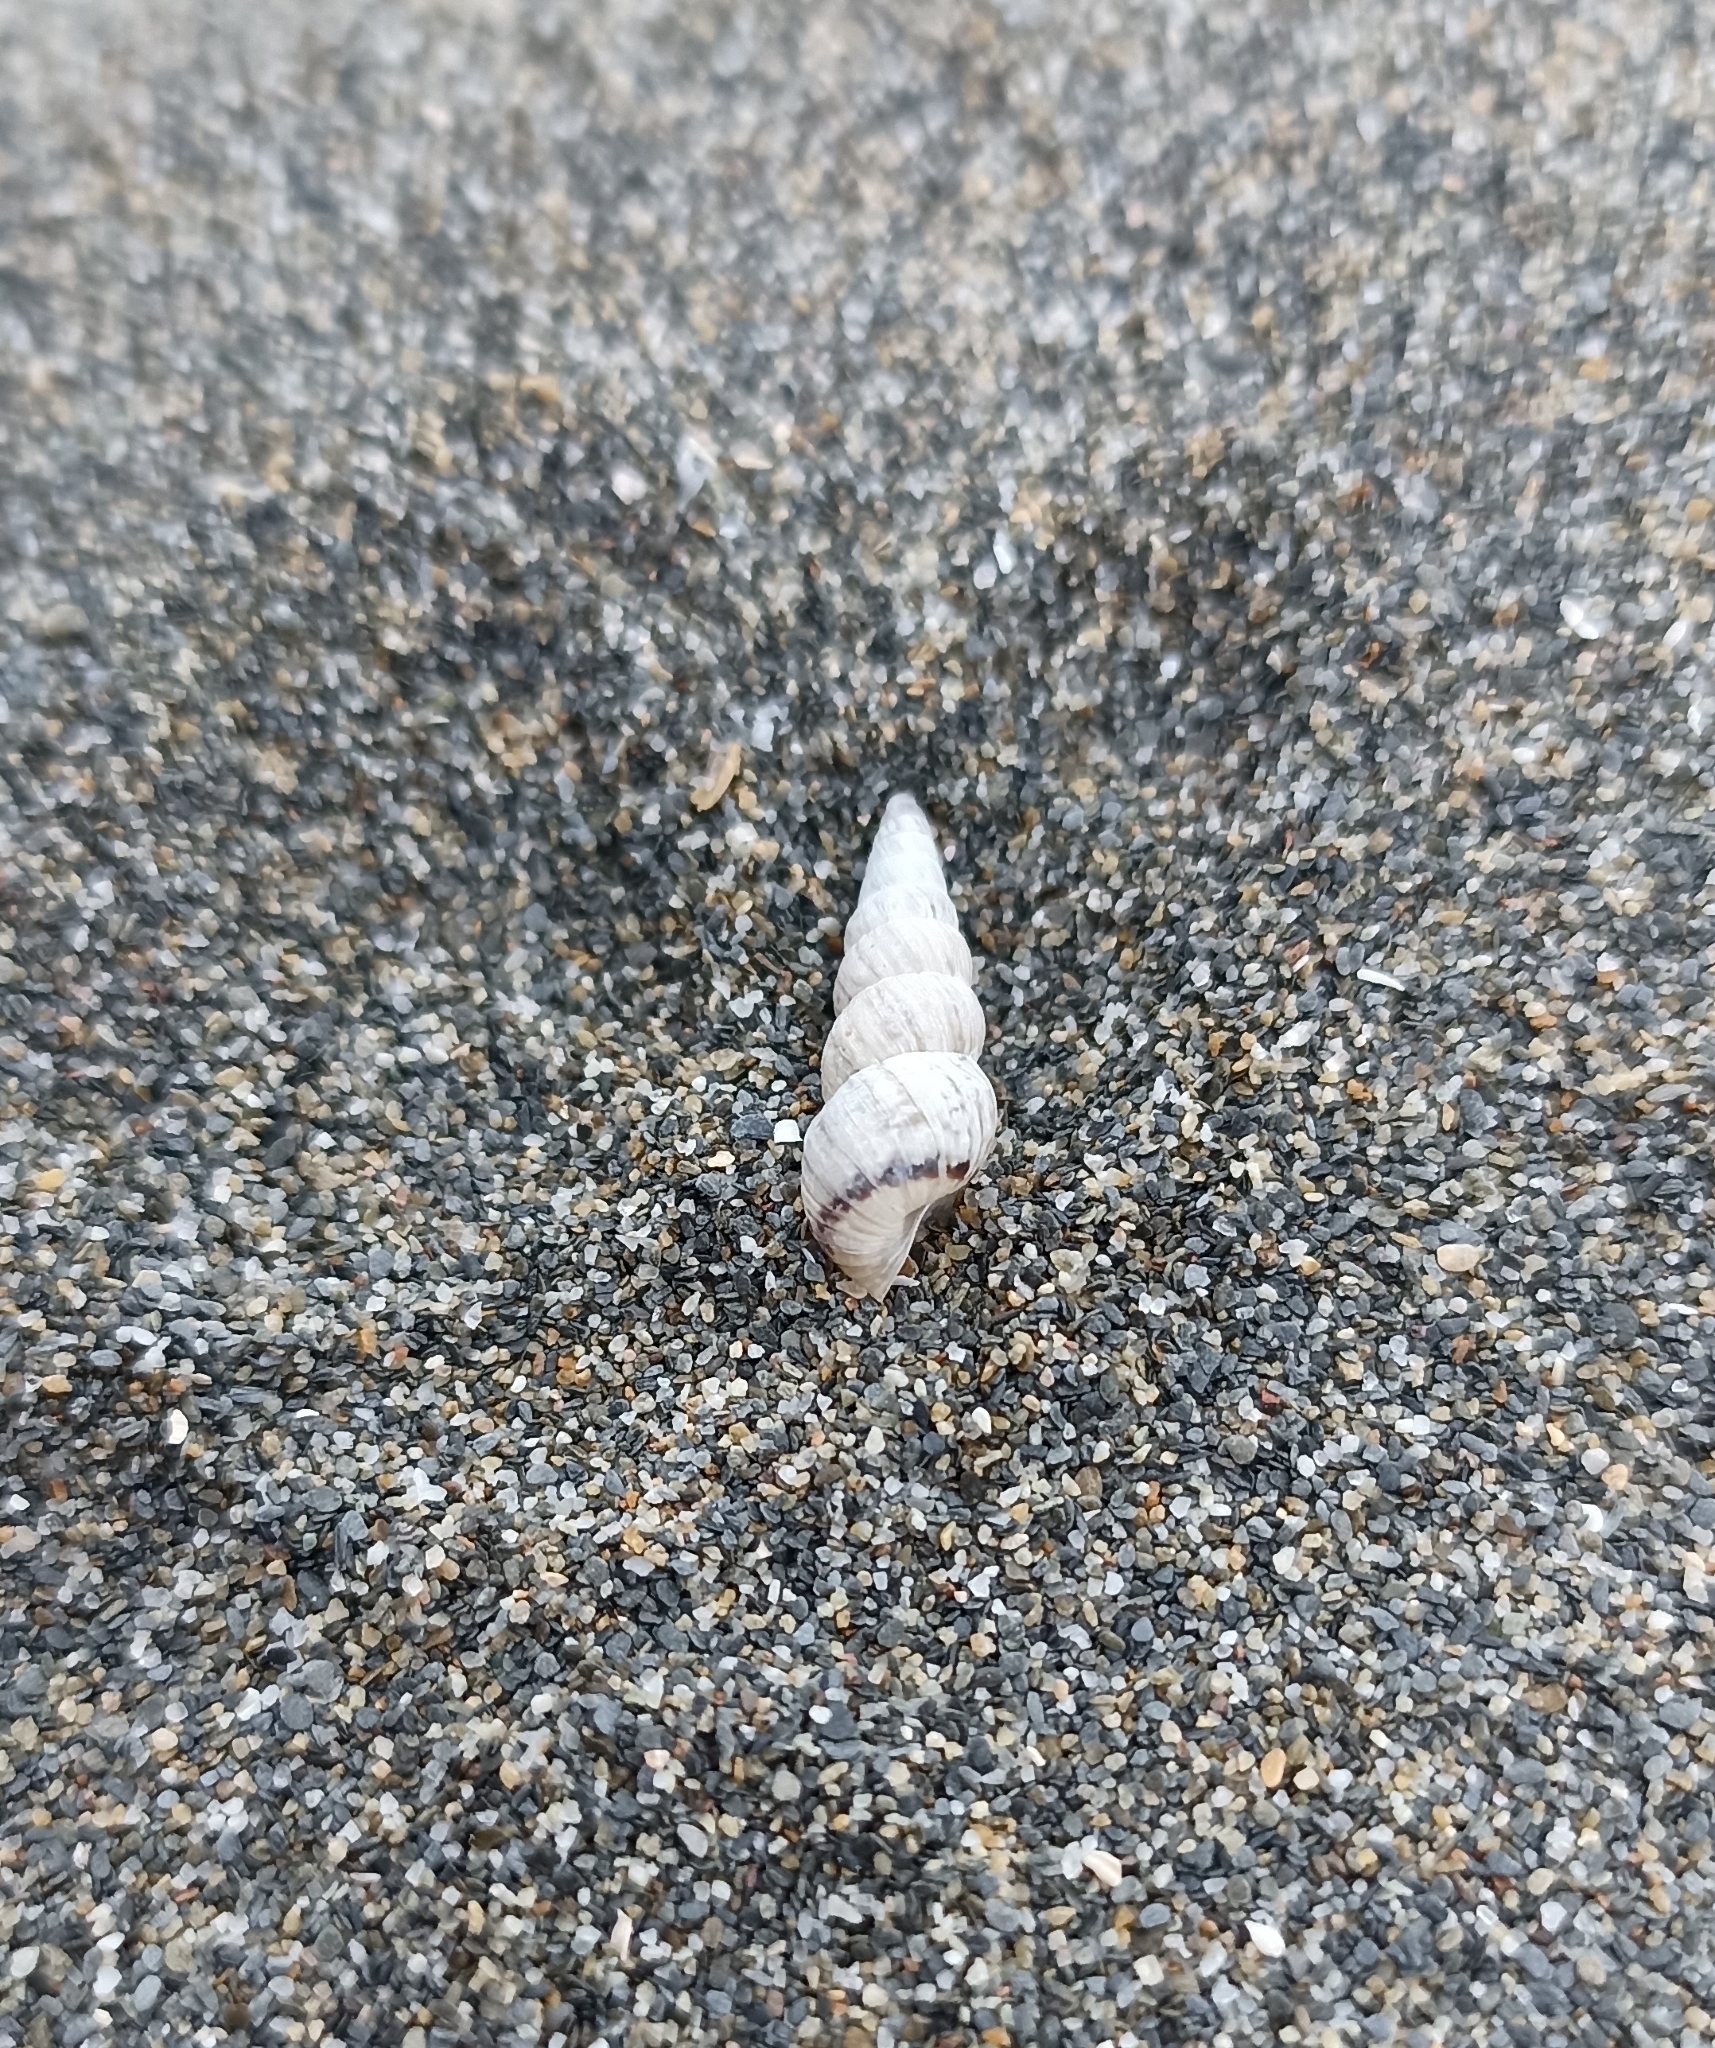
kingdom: Animalia
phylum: Mollusca
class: Gastropoda
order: Stylommatophora
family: Geomitridae
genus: Cochlicella
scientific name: Cochlicella acuta
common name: Pointed snail
